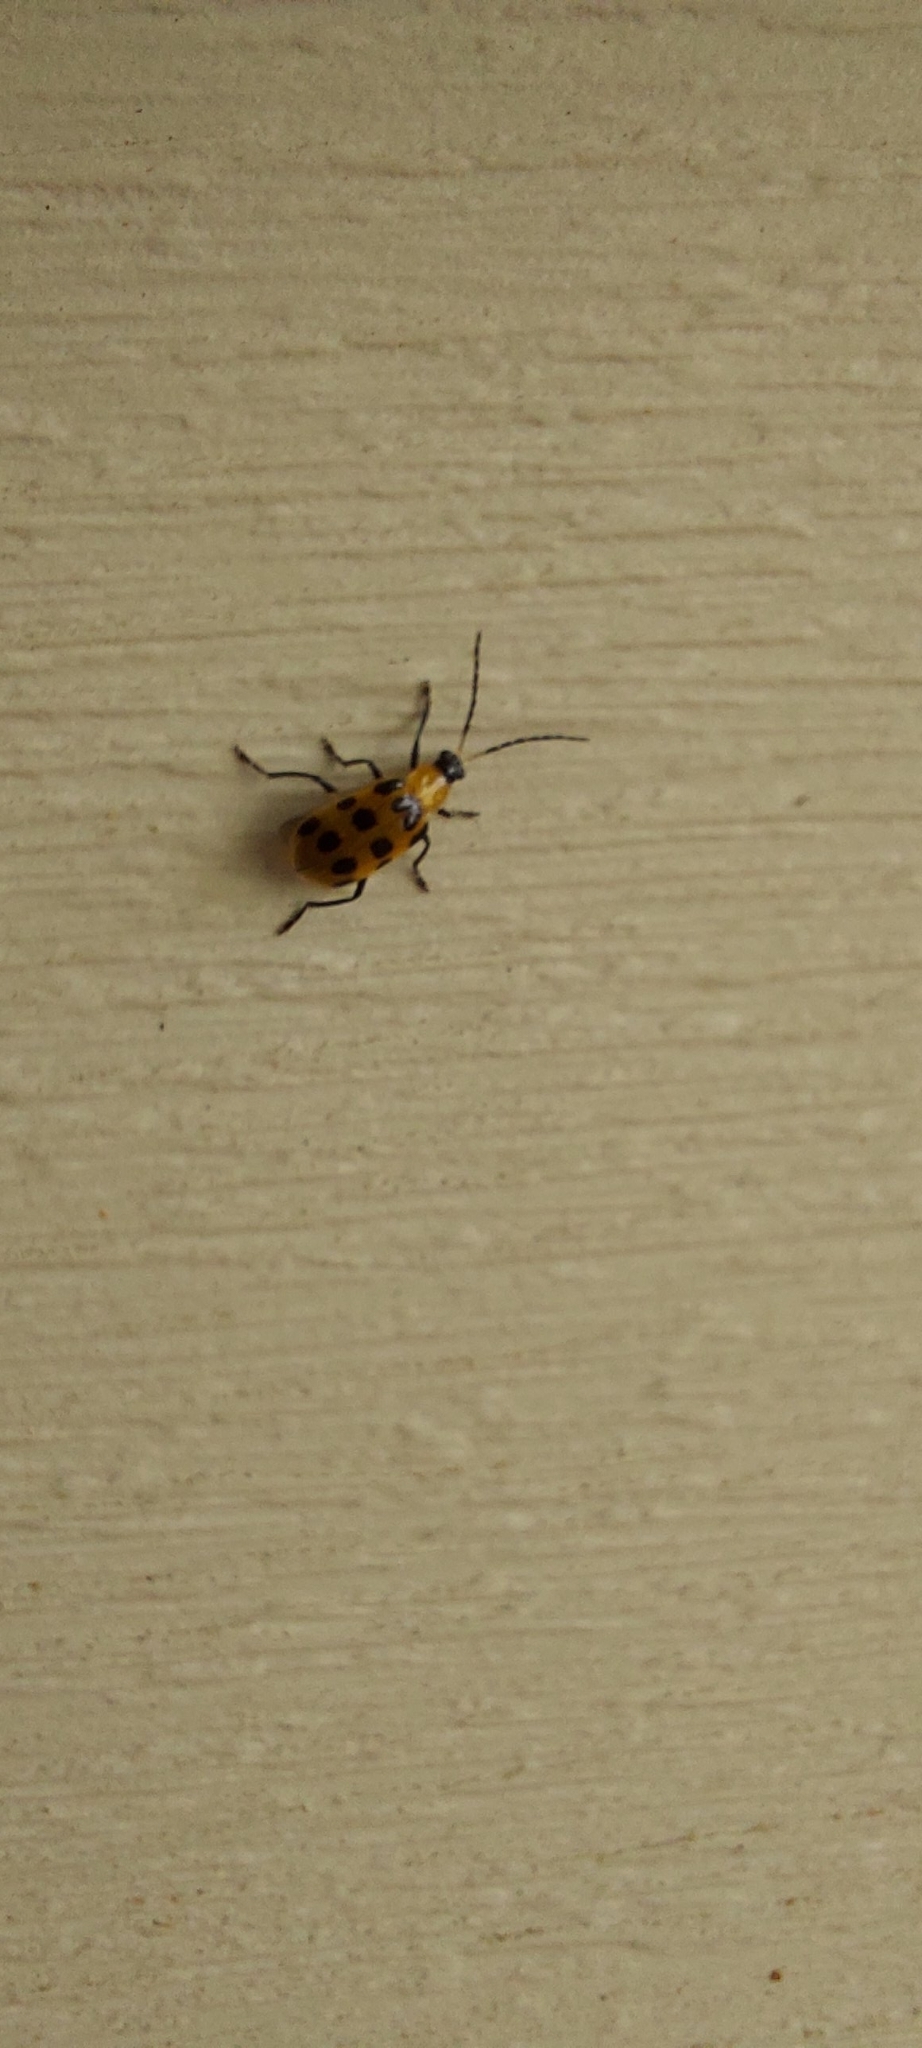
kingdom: Animalia
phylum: Arthropoda
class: Insecta
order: Coleoptera
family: Chrysomelidae
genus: Diabrotica
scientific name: Diabrotica undecimpunctata
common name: Spotted cucumber beetle
